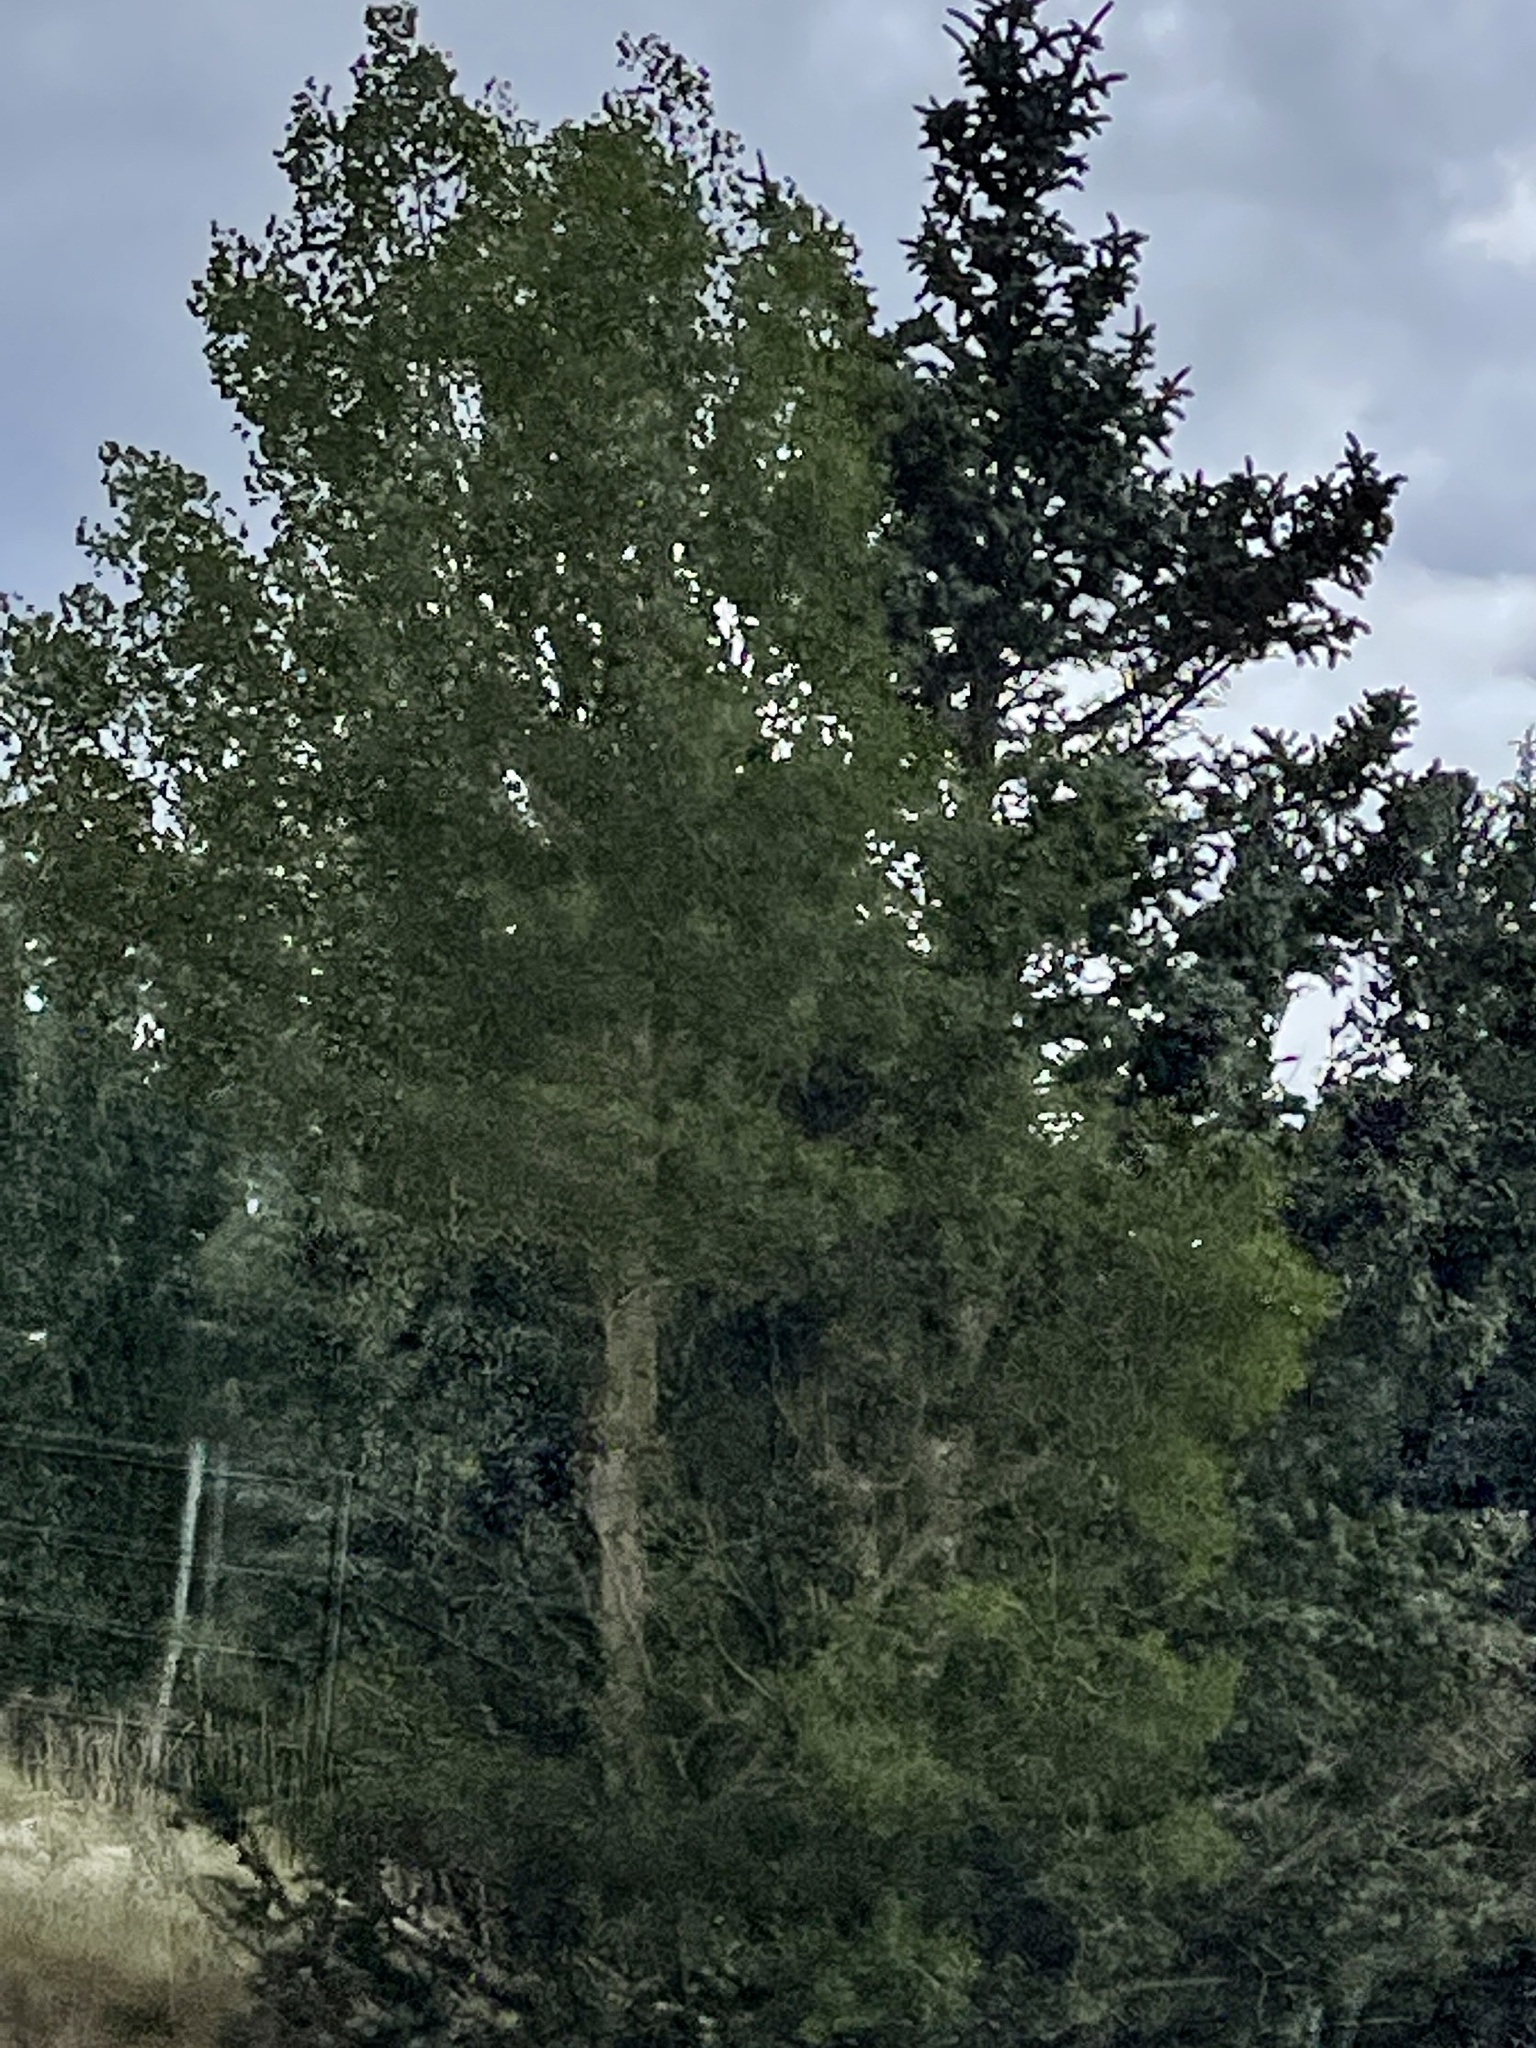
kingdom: Plantae
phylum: Tracheophyta
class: Magnoliopsida
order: Malpighiales
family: Salicaceae
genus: Populus
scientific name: Populus tremuloides
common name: Quaking aspen
